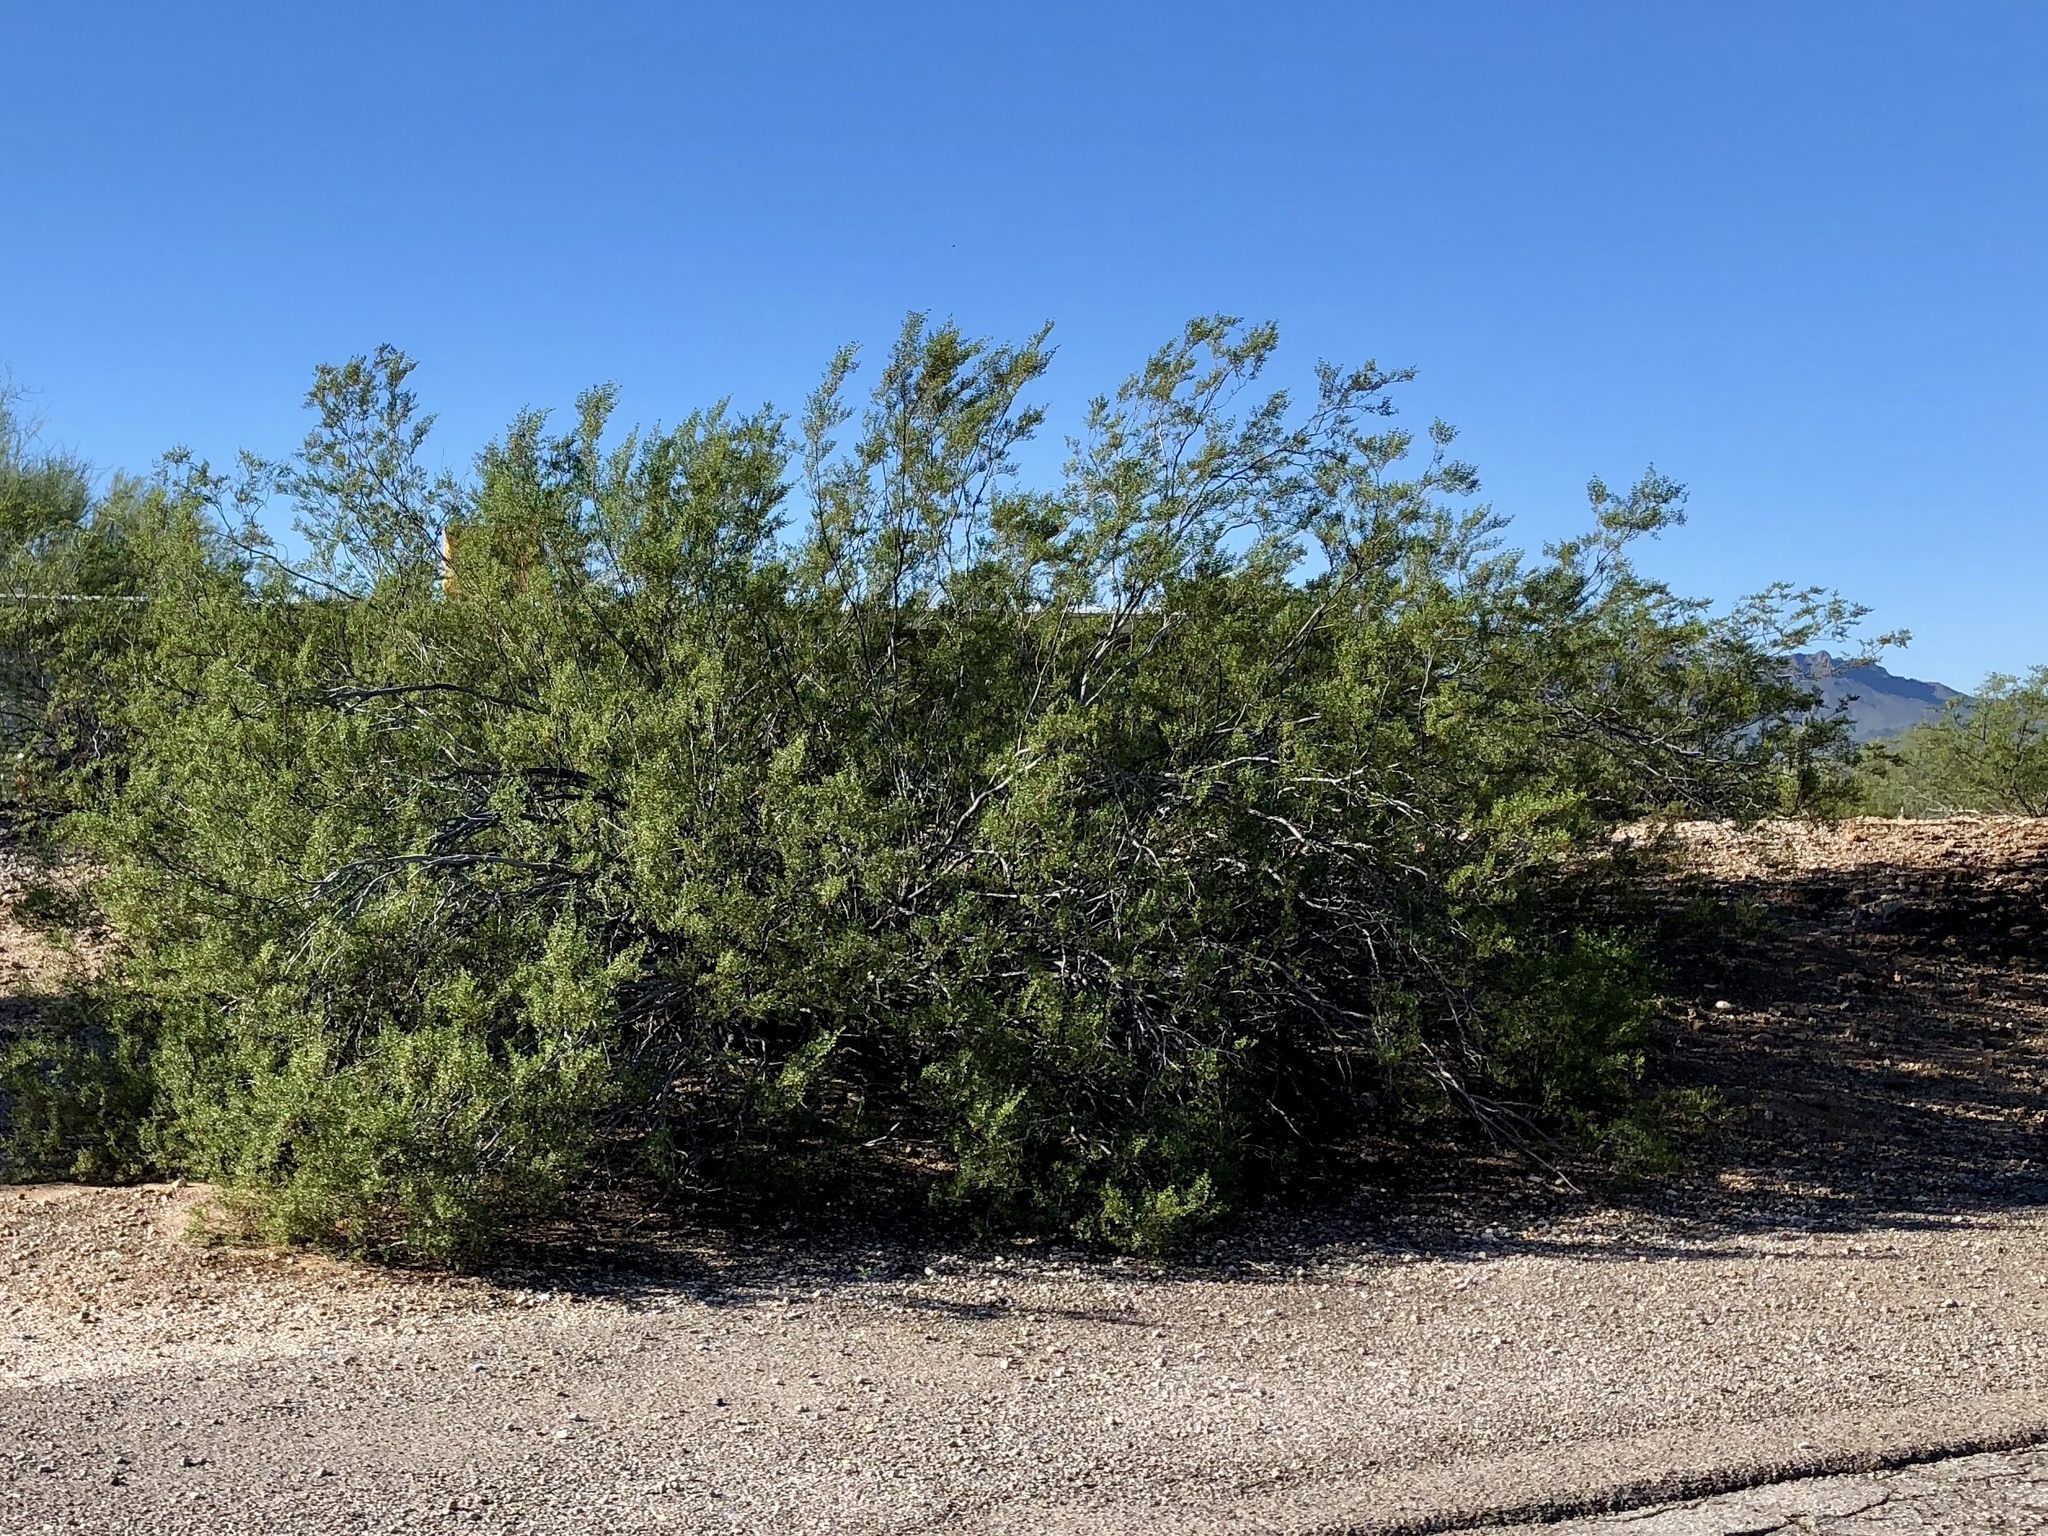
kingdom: Plantae
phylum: Tracheophyta
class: Magnoliopsida
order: Zygophyllales
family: Zygophyllaceae
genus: Larrea
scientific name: Larrea tridentata
